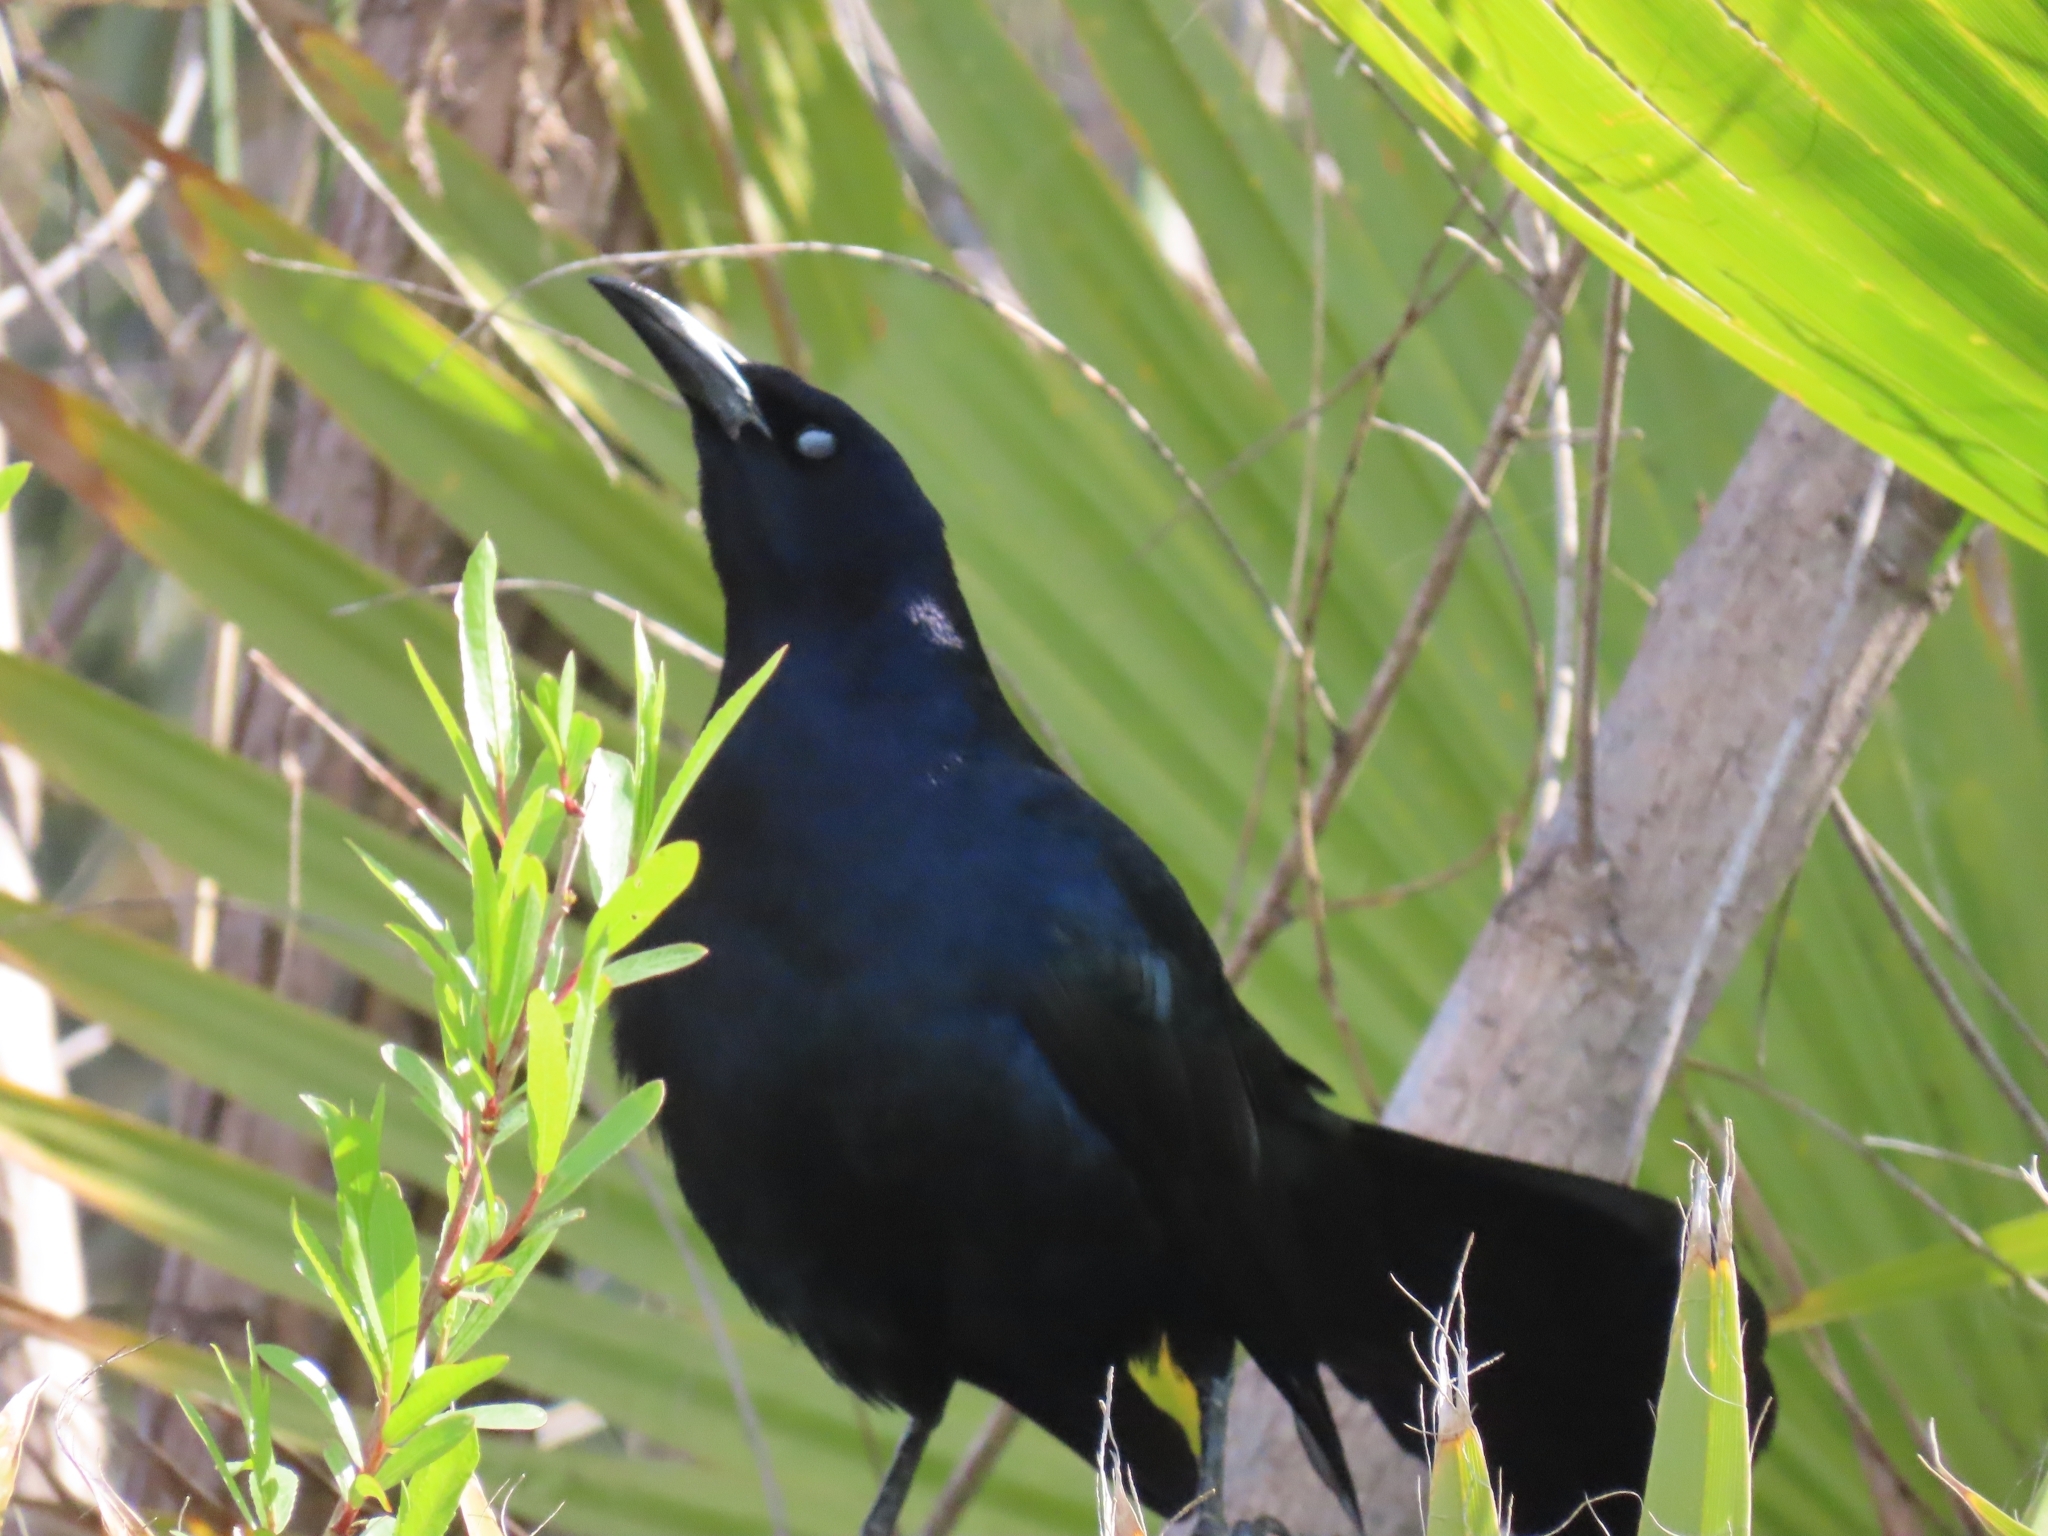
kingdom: Animalia
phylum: Chordata
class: Aves
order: Passeriformes
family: Icteridae
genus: Quiscalus
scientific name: Quiscalus mexicanus
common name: Great-tailed grackle
